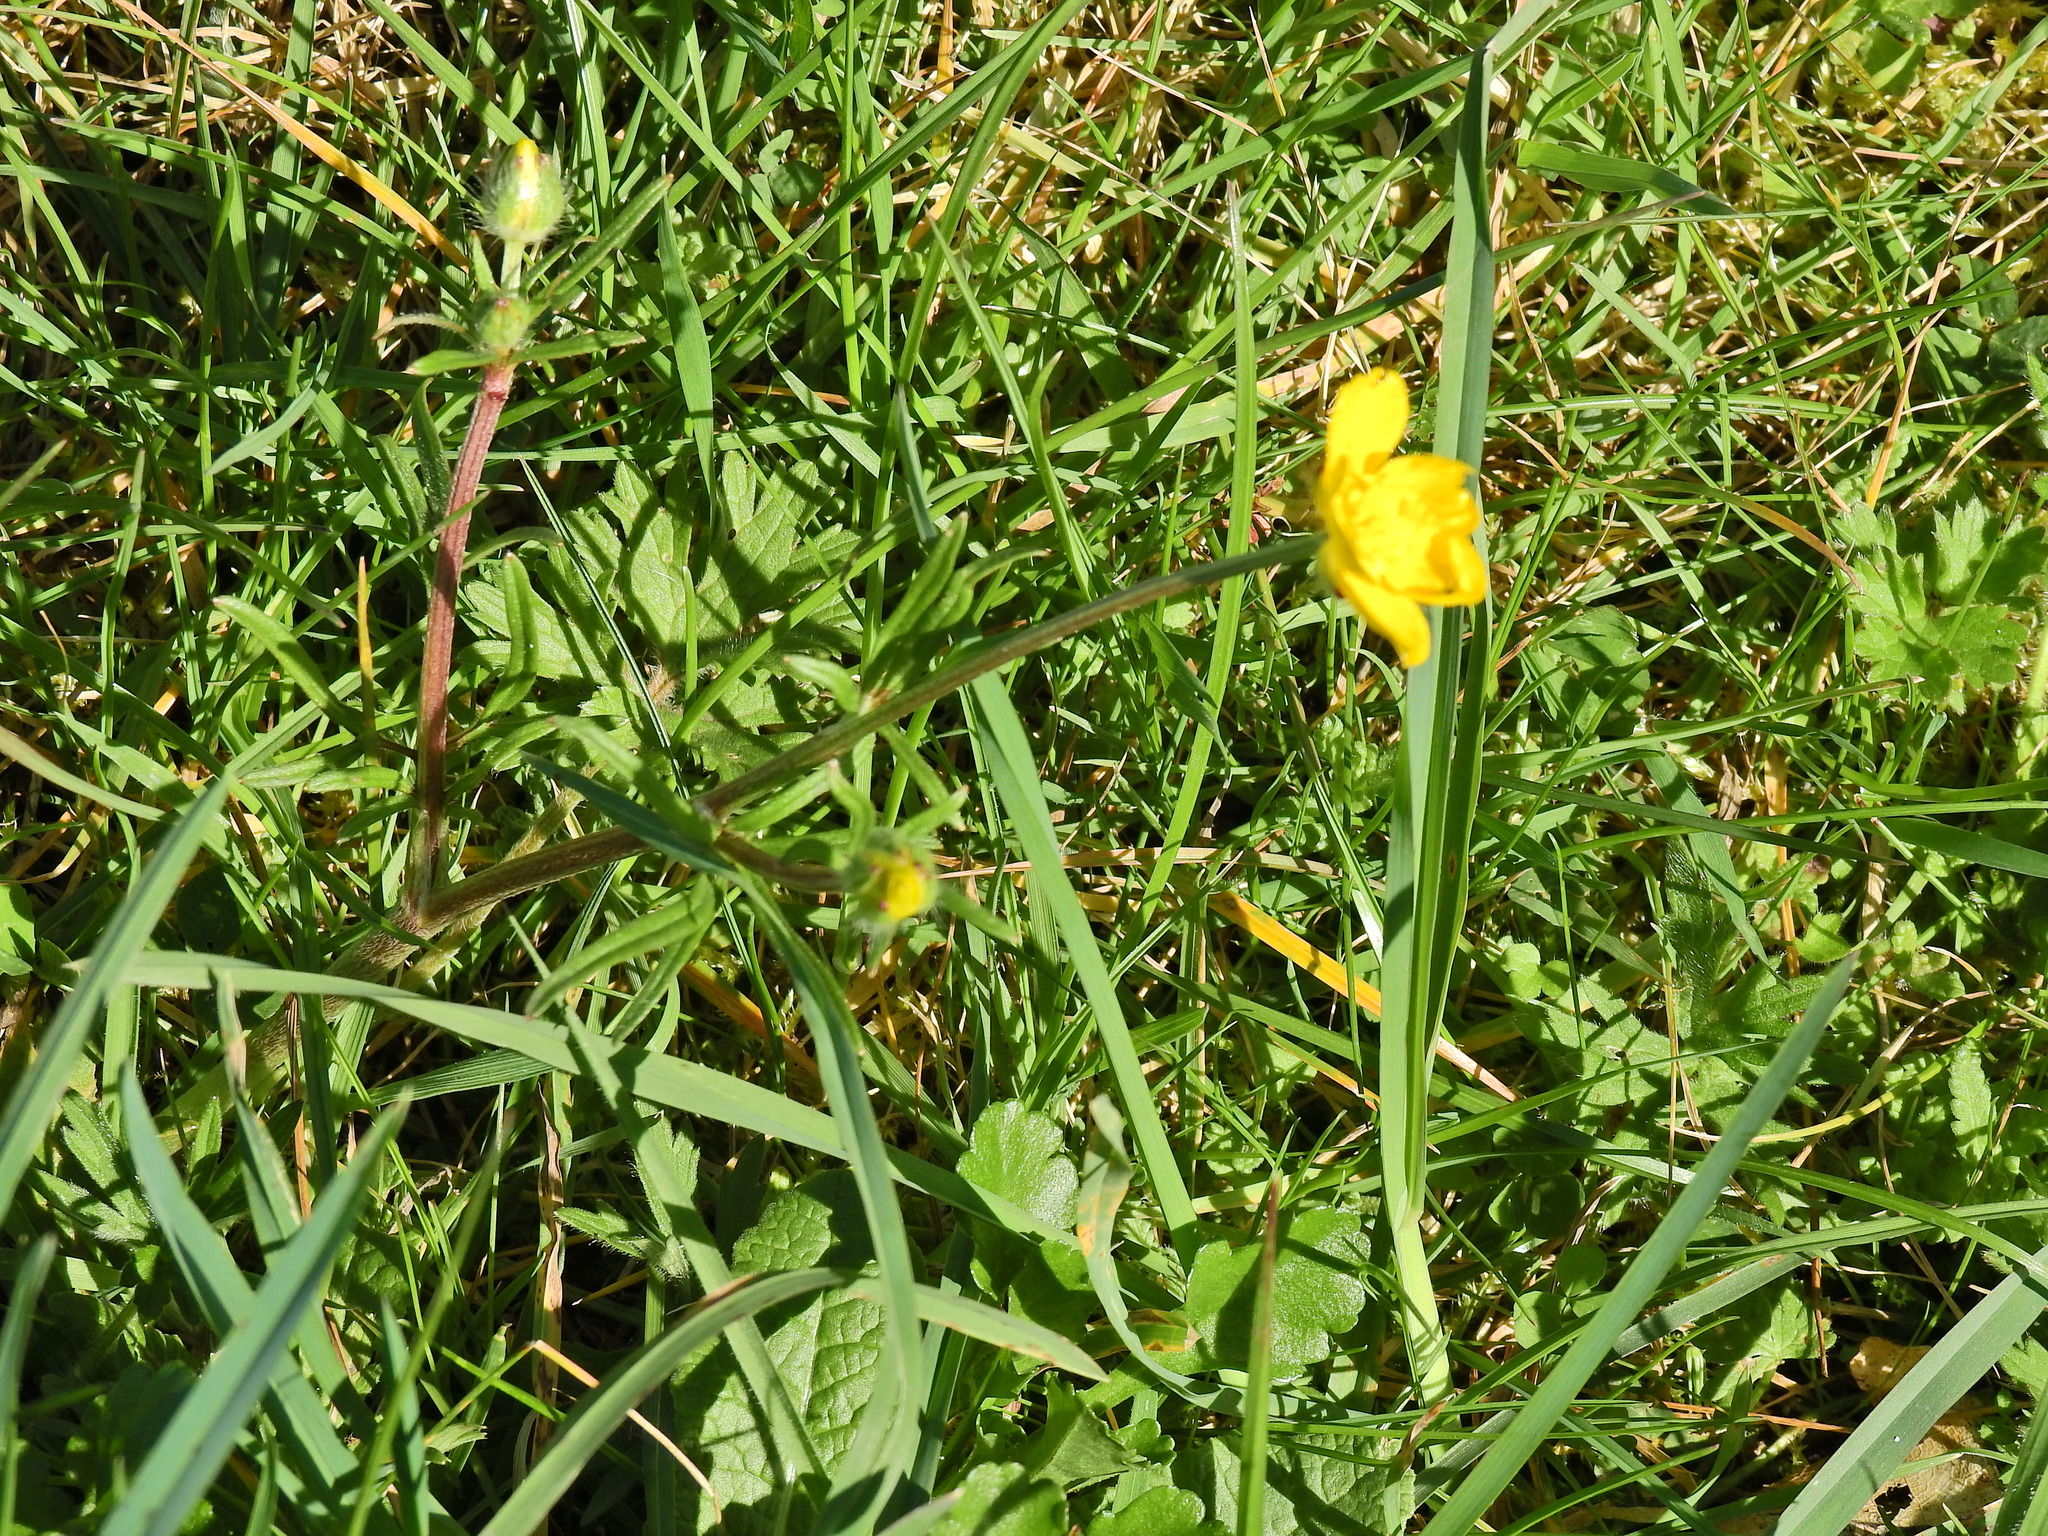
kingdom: Plantae
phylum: Tracheophyta
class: Magnoliopsida
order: Ranunculales
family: Ranunculaceae
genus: Ranunculus
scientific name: Ranunculus repens
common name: Creeping buttercup
